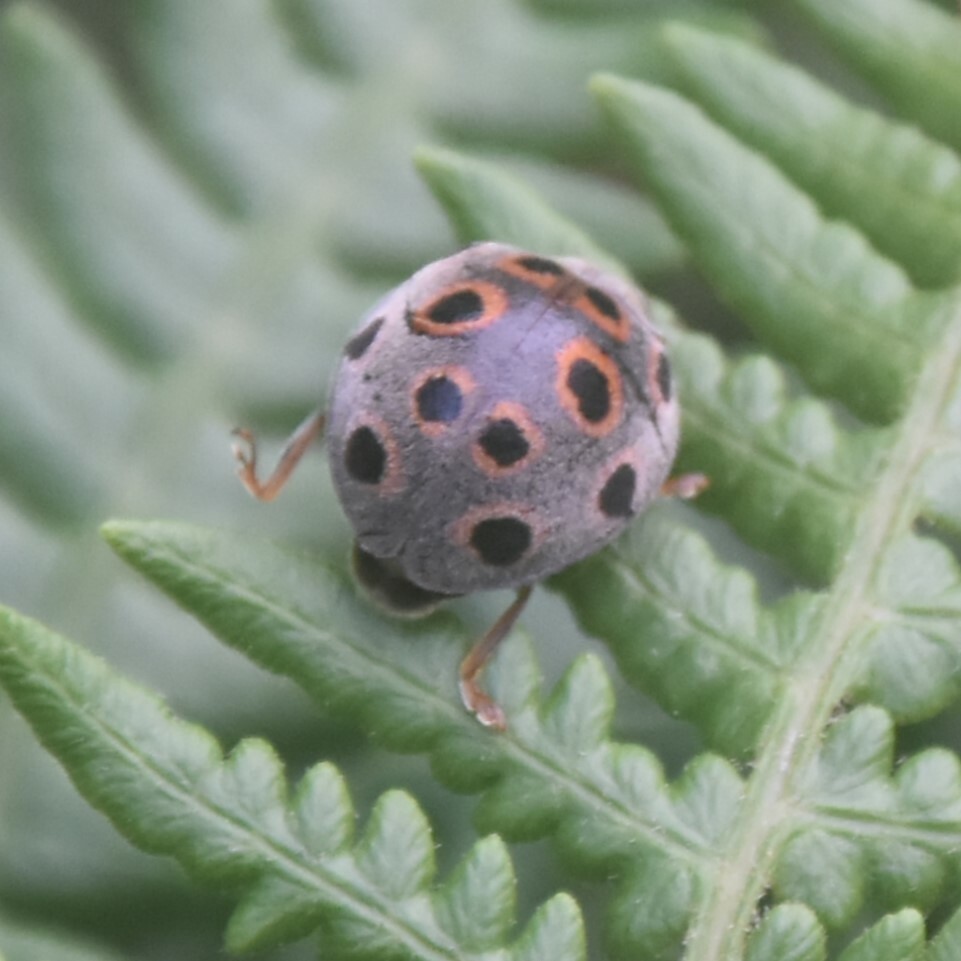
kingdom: Animalia
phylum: Arthropoda
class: Insecta
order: Coleoptera
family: Coccinellidae
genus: Henosepilachna
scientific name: Henosepilachna
